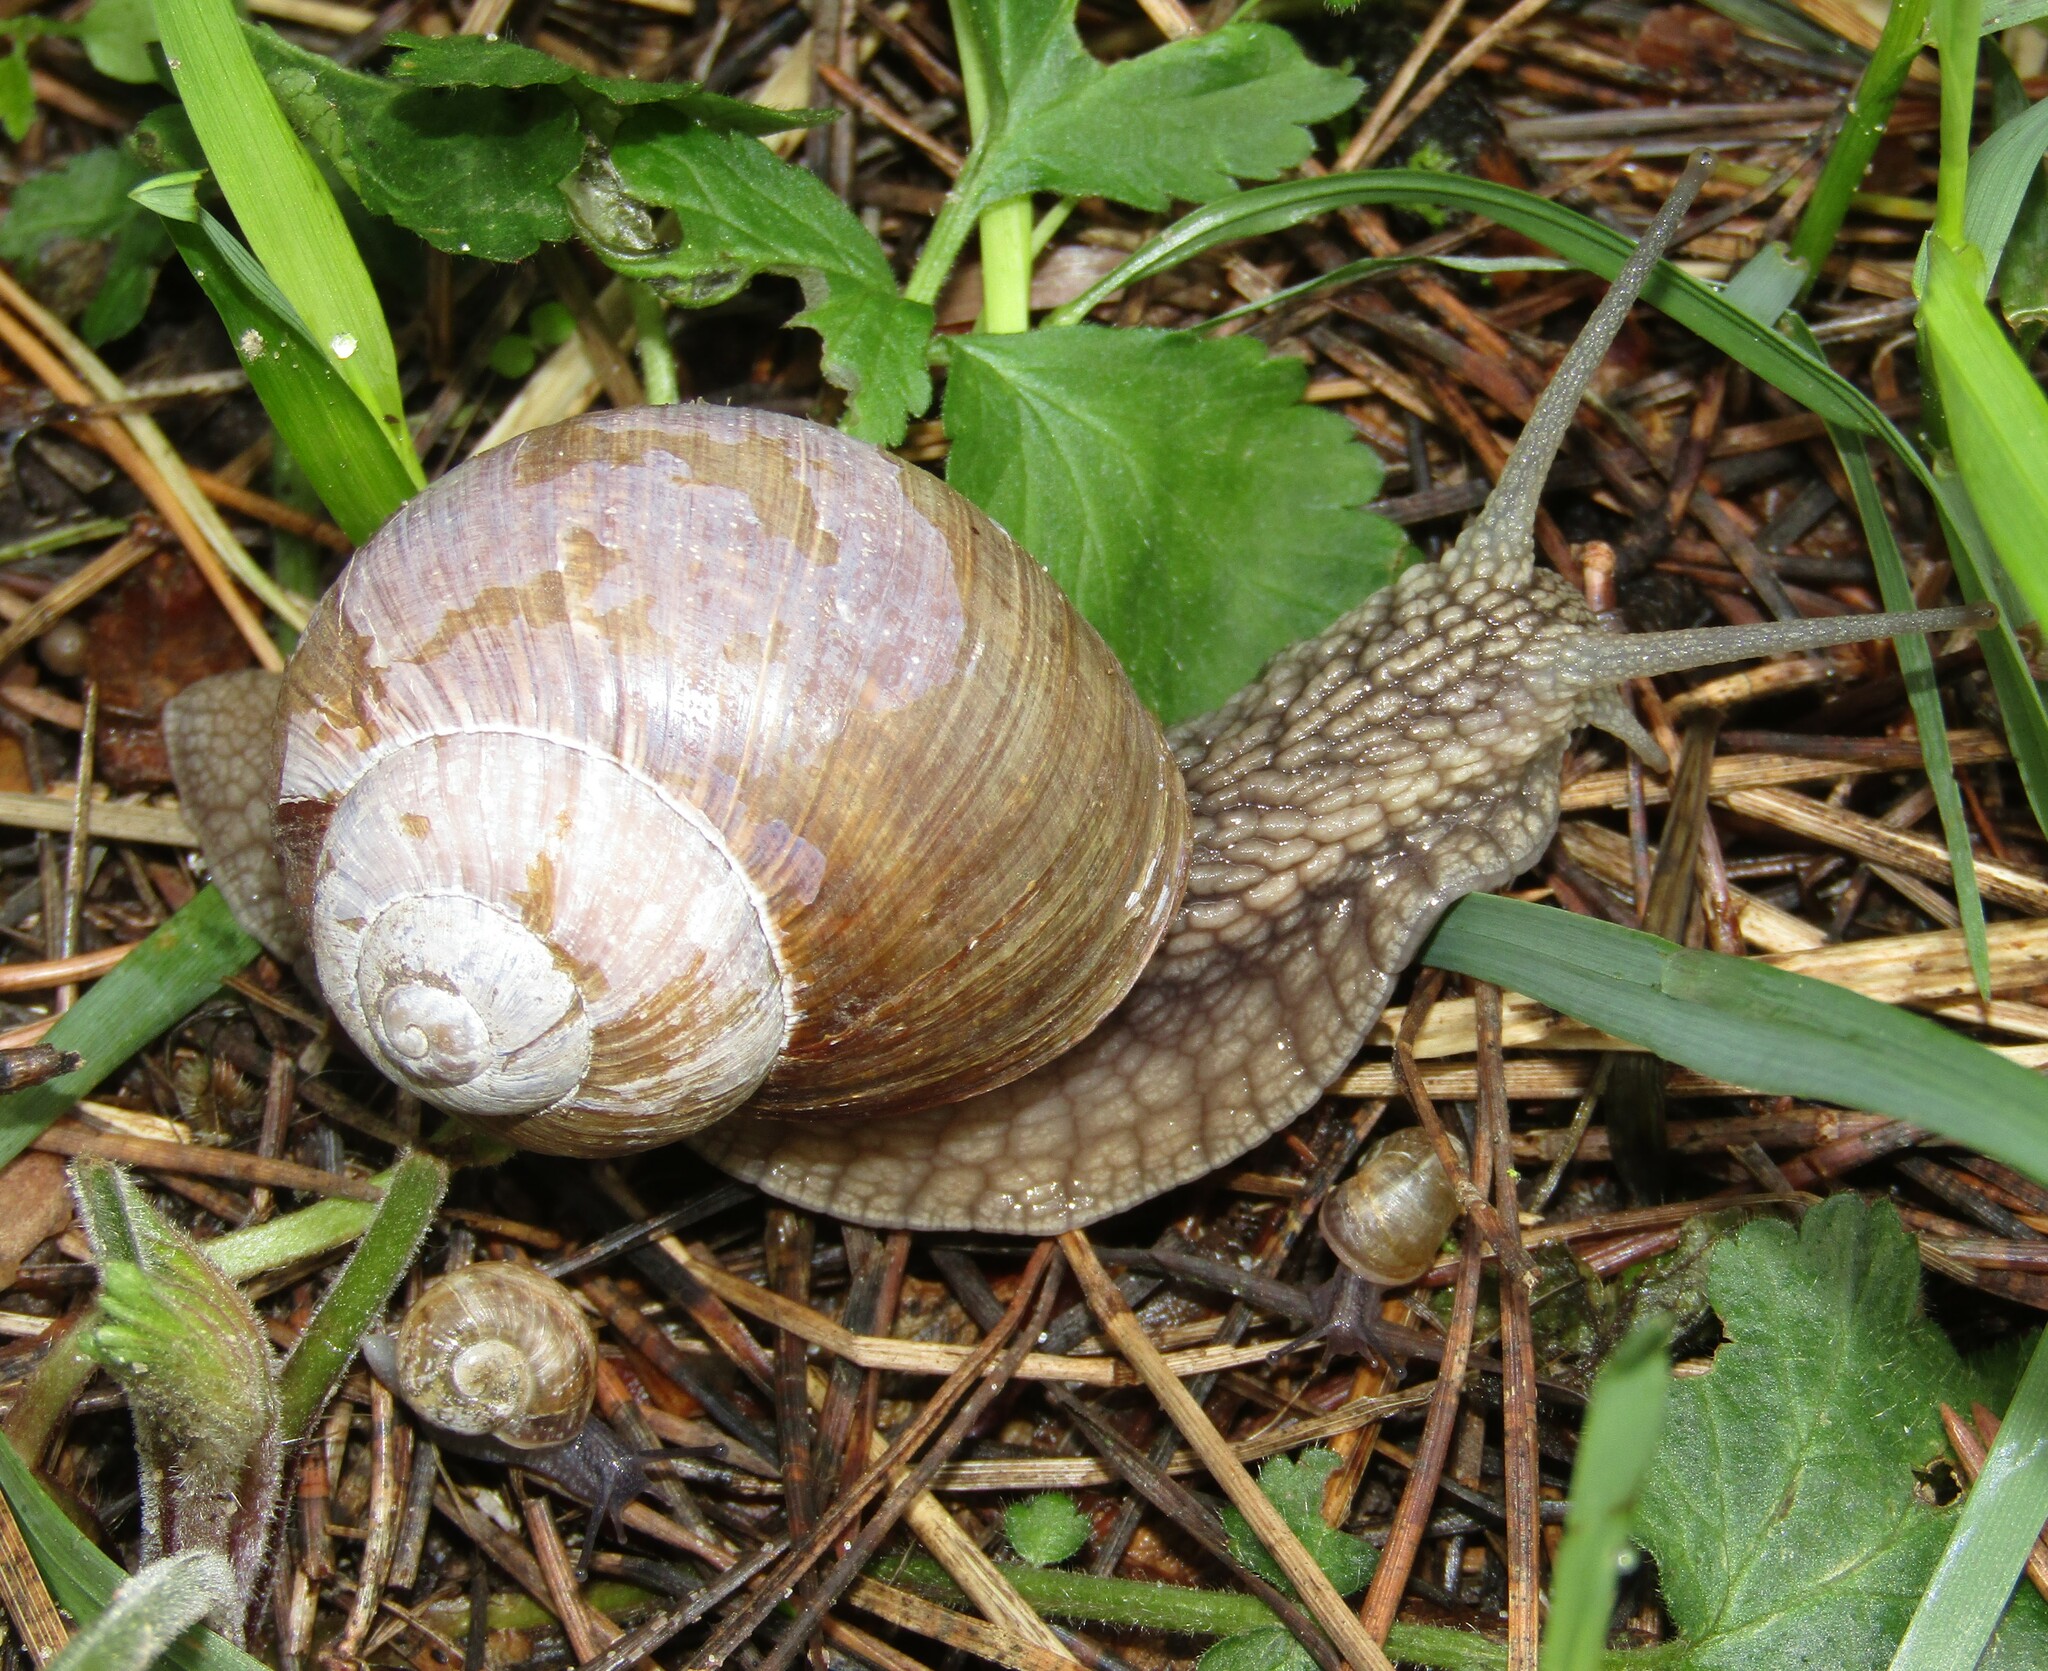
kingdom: Animalia
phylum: Mollusca
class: Gastropoda
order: Stylommatophora
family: Helicidae
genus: Helix
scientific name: Helix pomatia
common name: Roman snail
